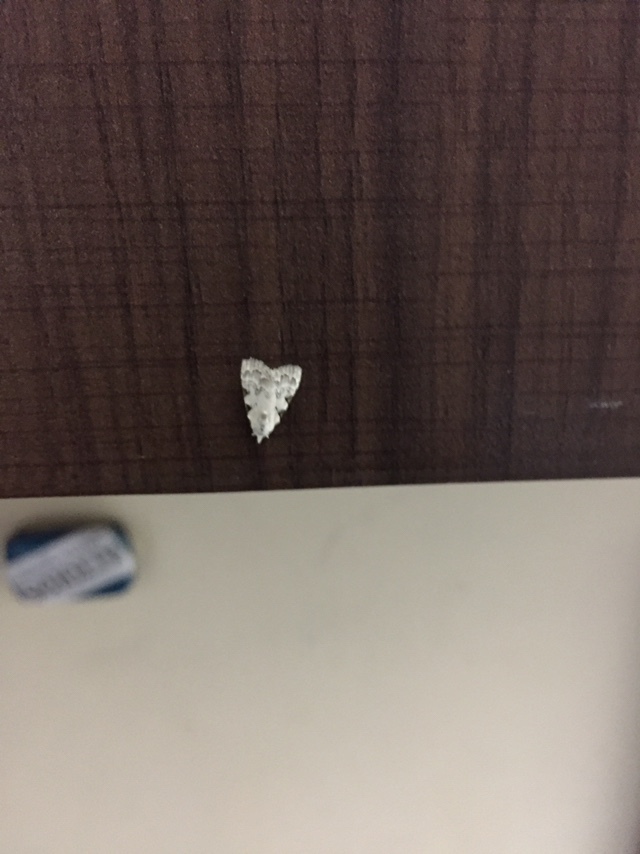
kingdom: Animalia
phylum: Arthropoda
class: Insecta
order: Lepidoptera
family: Nolidae
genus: Nola
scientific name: Nola pascua
